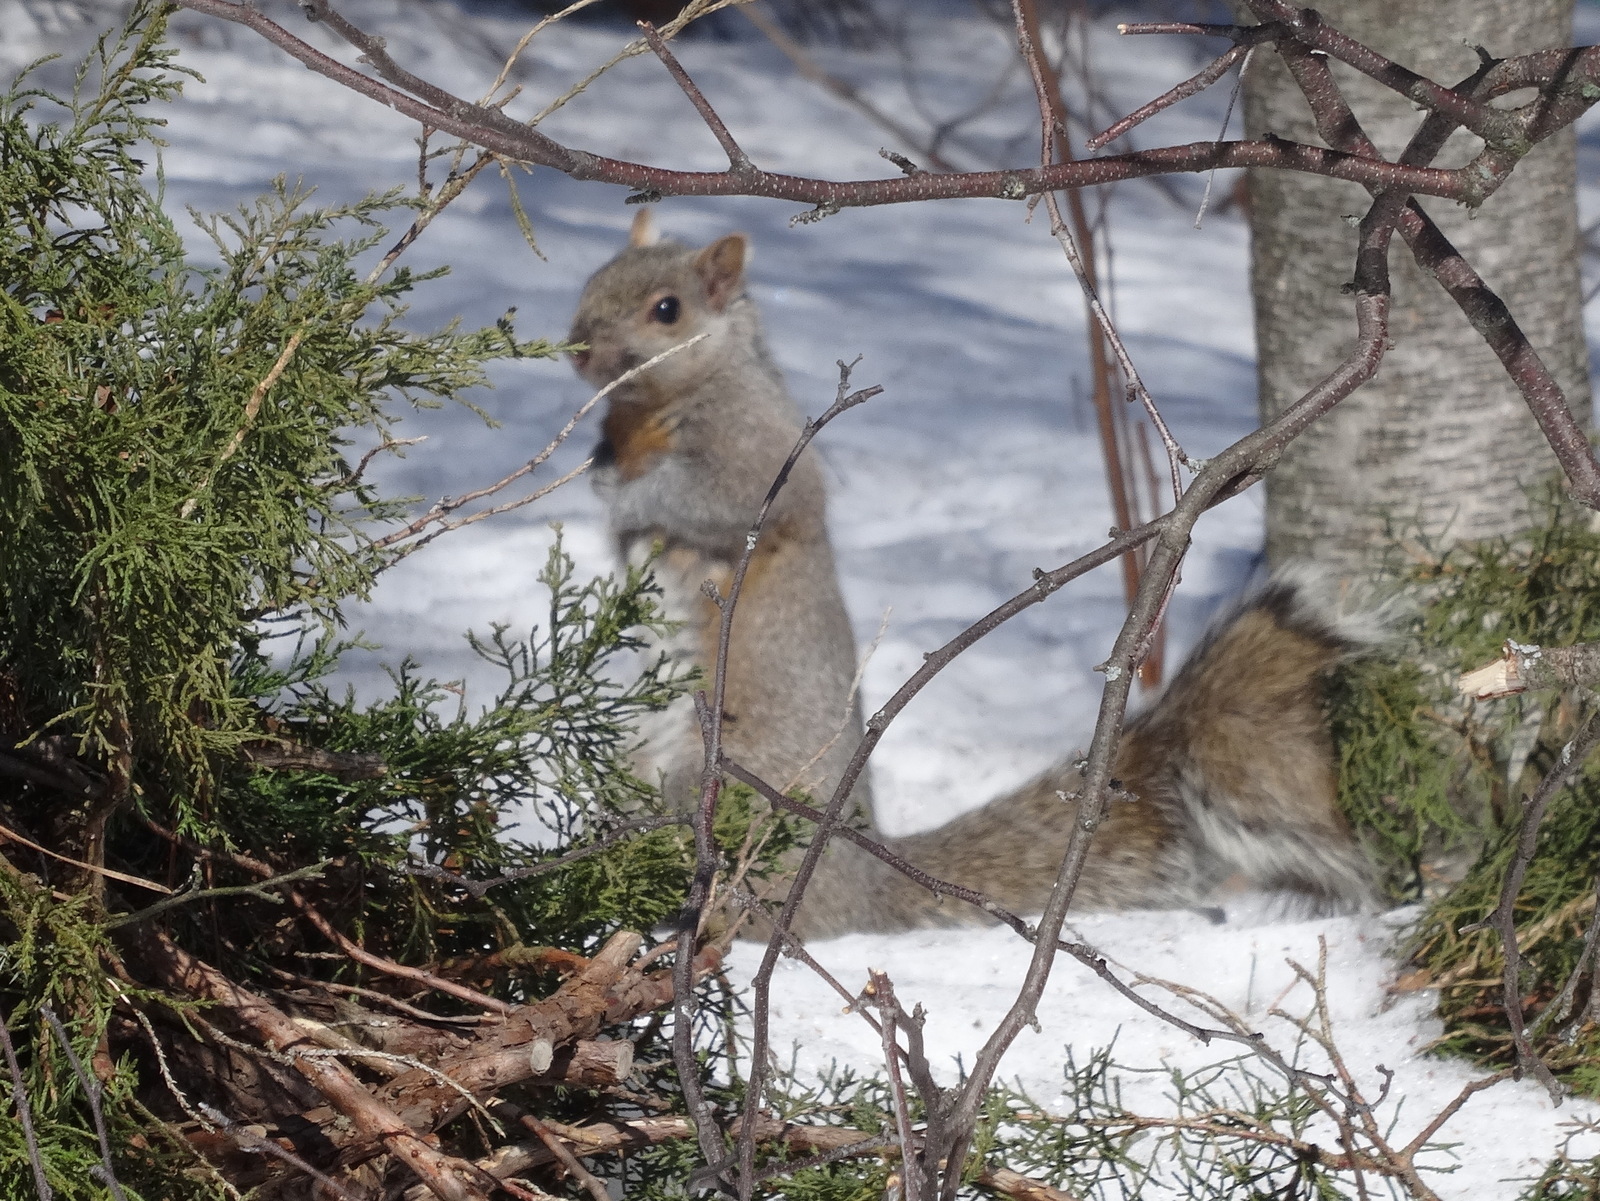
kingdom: Animalia
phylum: Chordata
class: Mammalia
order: Rodentia
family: Sciuridae
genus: Sciurus
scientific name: Sciurus carolinensis
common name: Eastern gray squirrel
